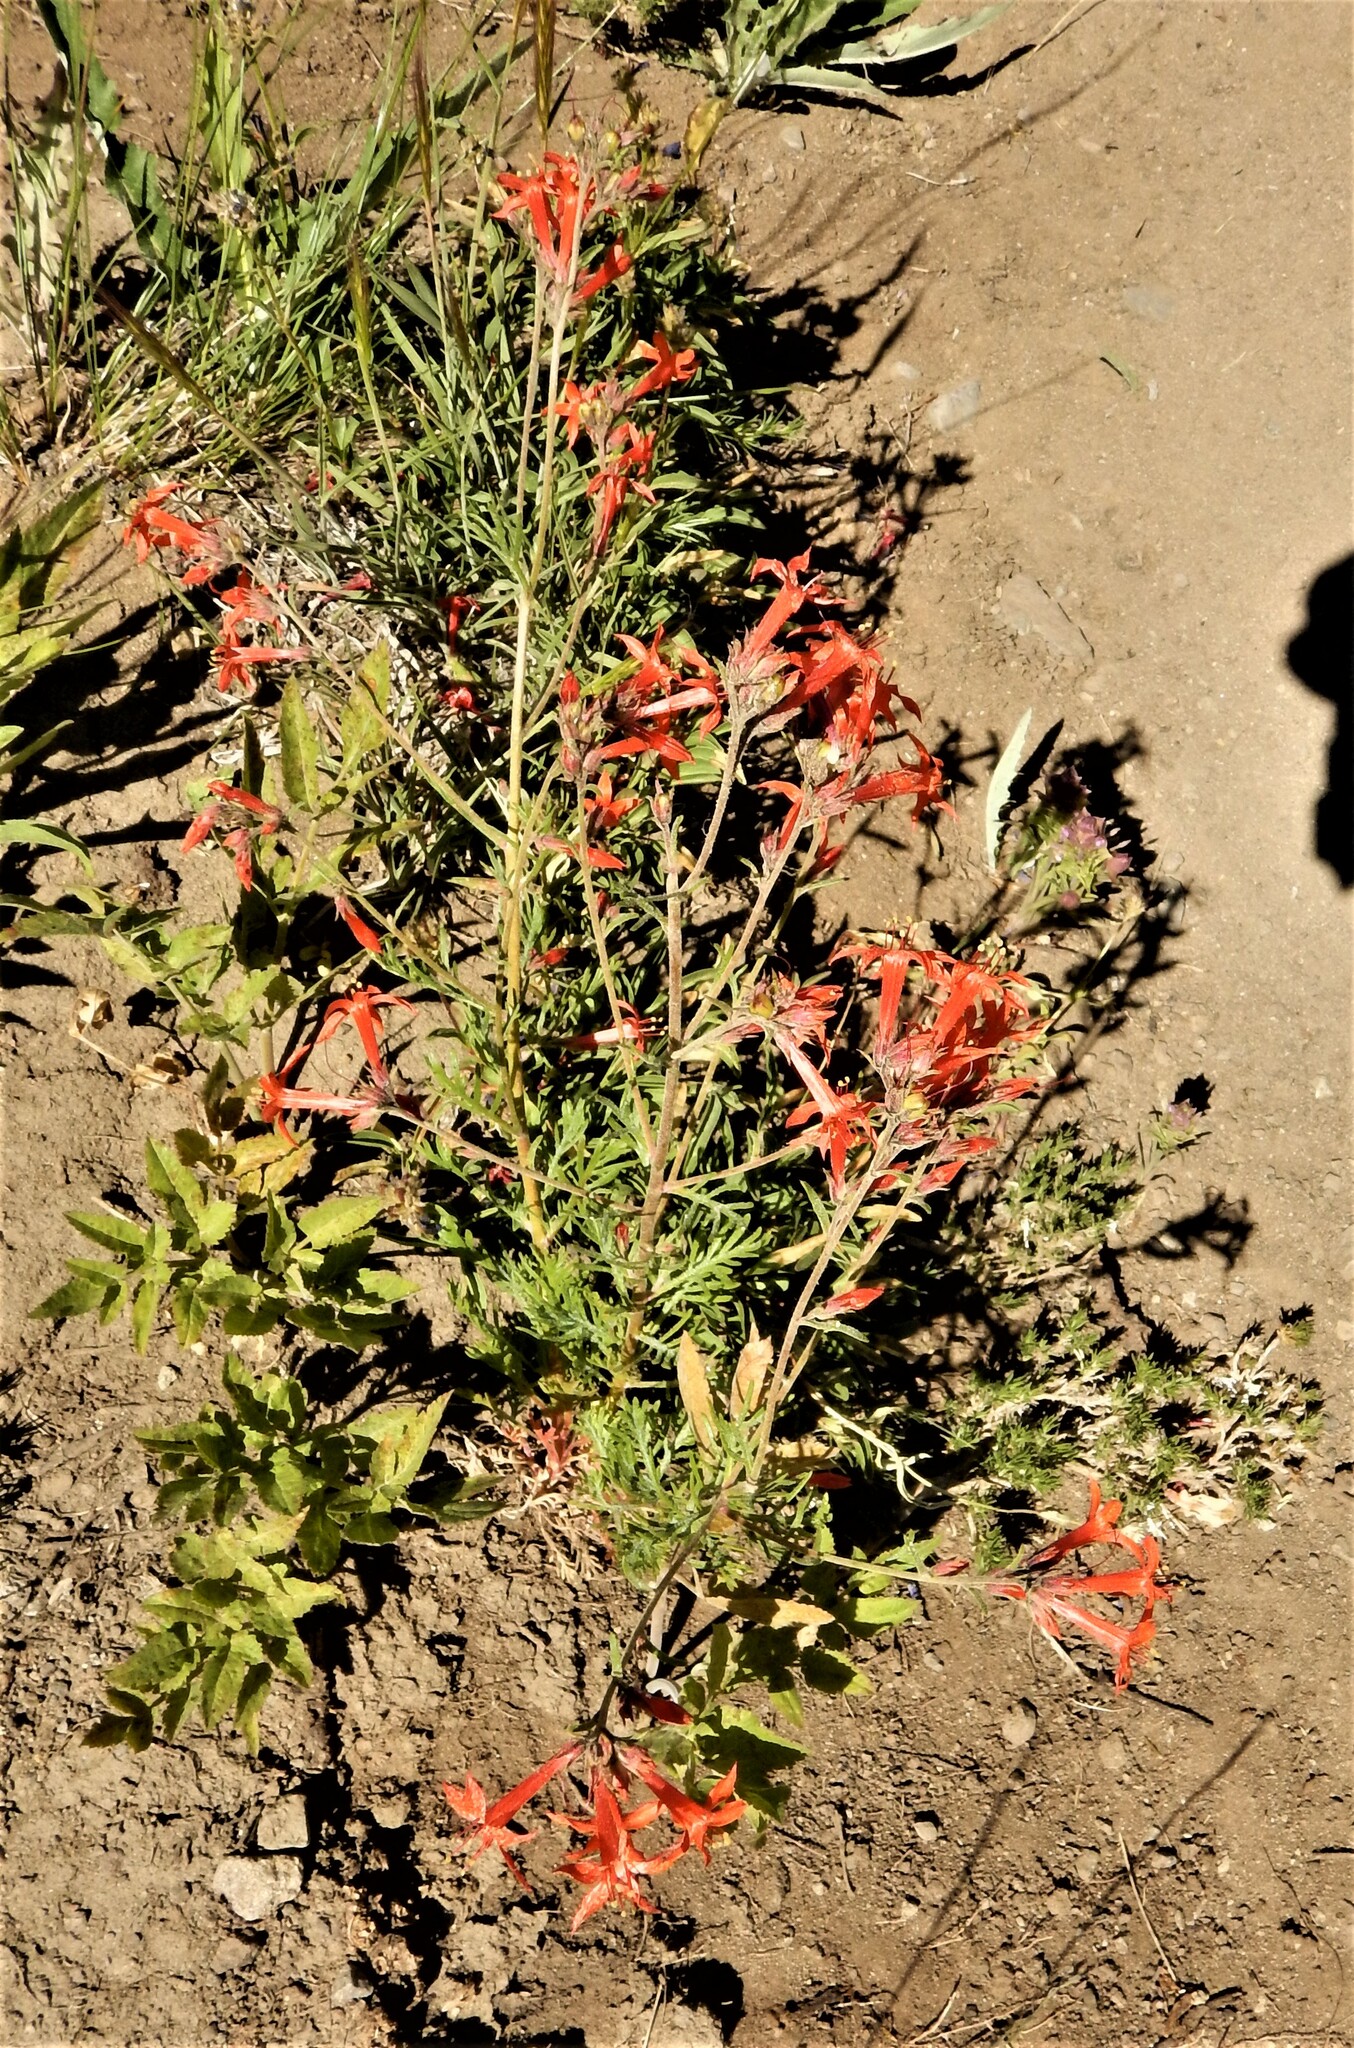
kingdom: Plantae
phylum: Tracheophyta
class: Magnoliopsida
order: Ericales
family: Polemoniaceae
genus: Ipomopsis
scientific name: Ipomopsis aggregata
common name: Scarlet gilia
